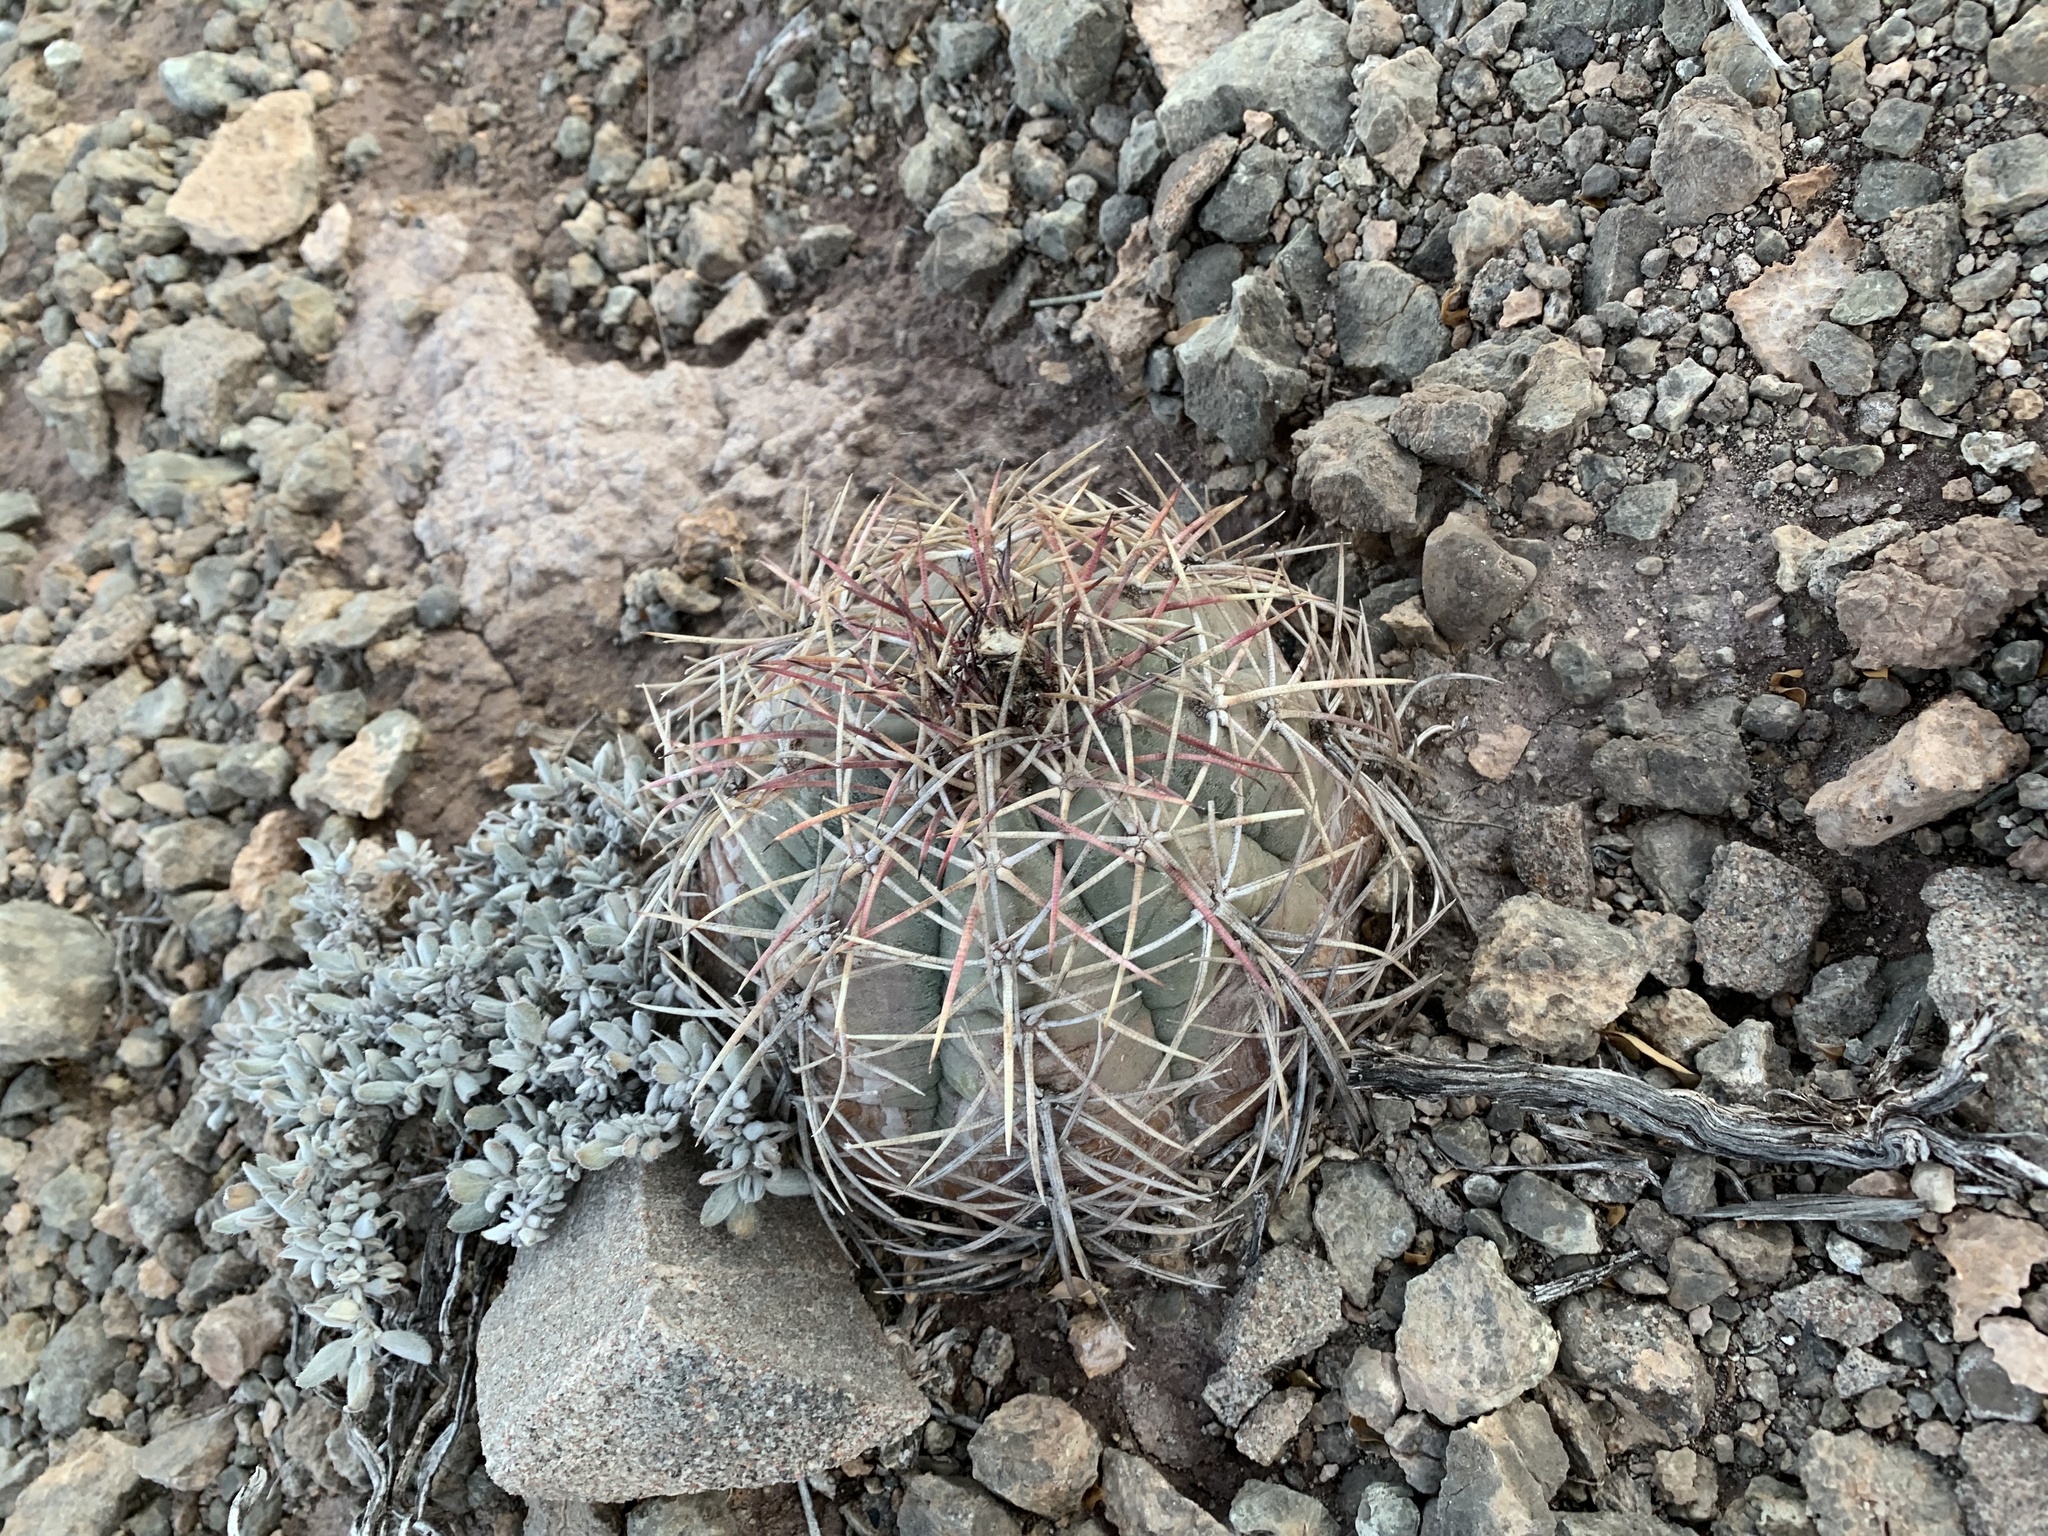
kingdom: Plantae
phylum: Tracheophyta
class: Magnoliopsida
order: Caryophyllales
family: Cactaceae
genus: Echinocactus
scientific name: Echinocactus horizonthalonius
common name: Devilshead
